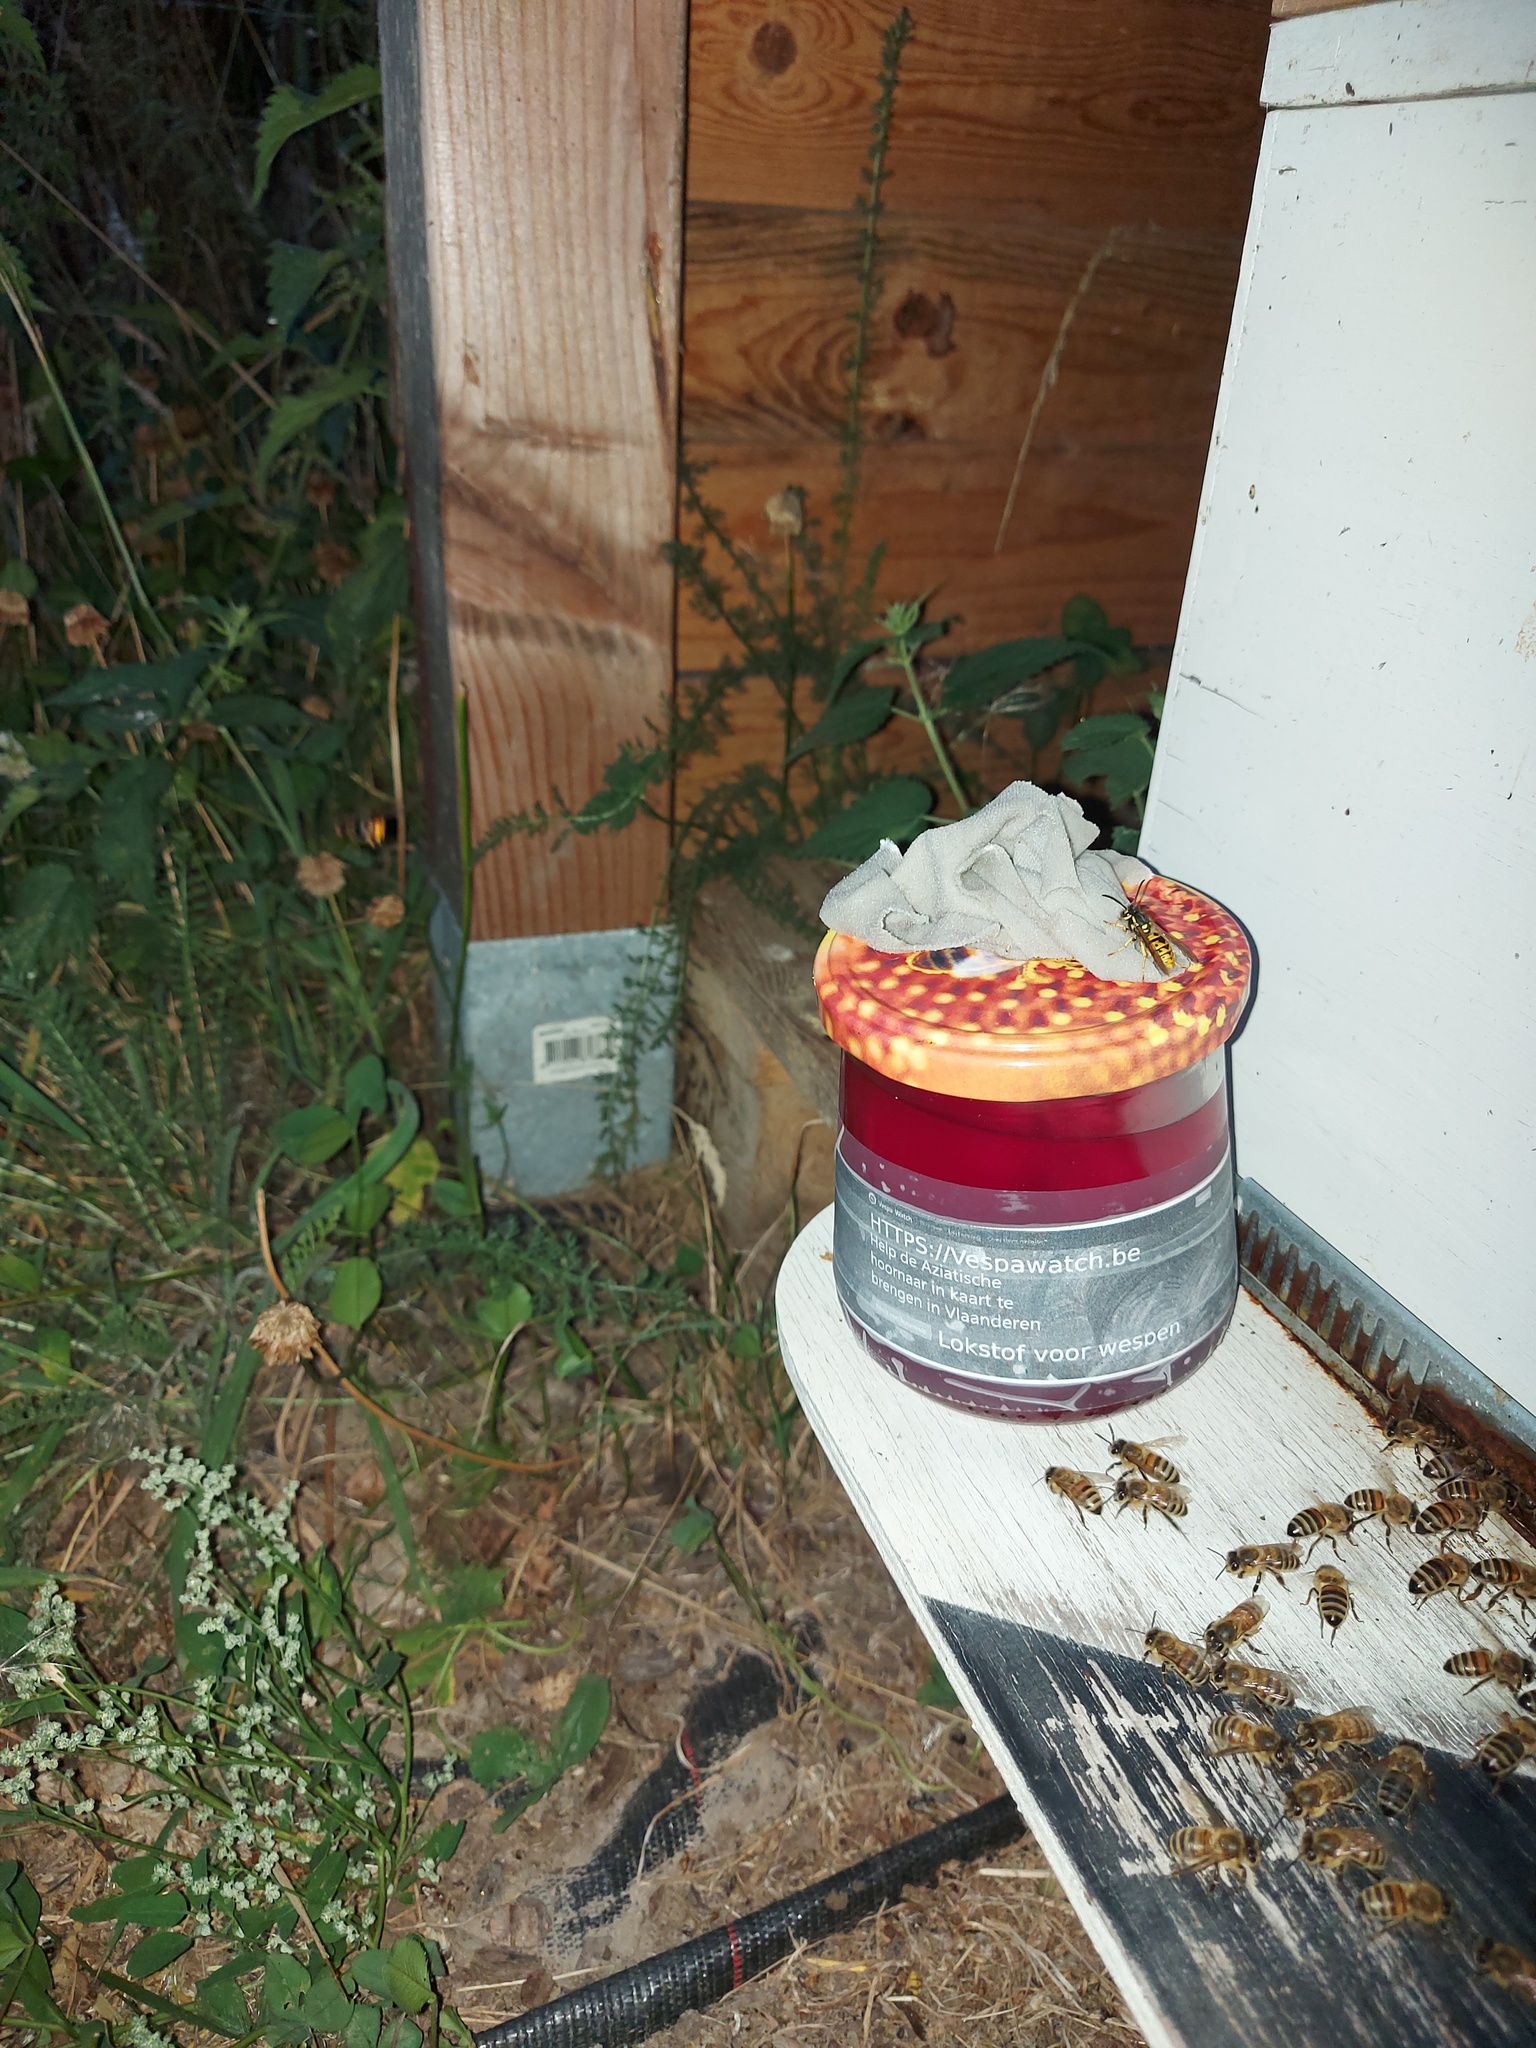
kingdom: Animalia
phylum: Arthropoda
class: Insecta
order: Hymenoptera
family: Vespidae
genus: Vespa
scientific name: Vespa velutina
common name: Asian hornet
